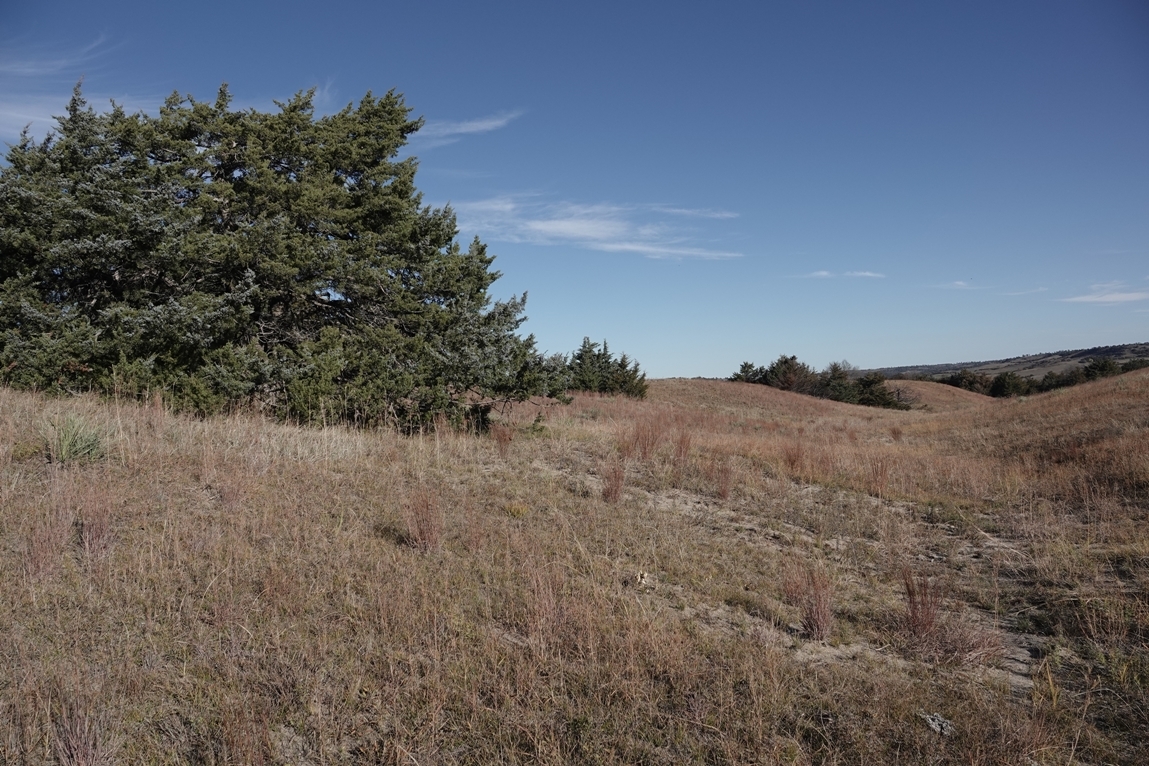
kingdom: Plantae
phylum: Tracheophyta
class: Pinopsida
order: Pinales
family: Cupressaceae
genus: Juniperus
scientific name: Juniperus virginiana
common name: Red juniper
